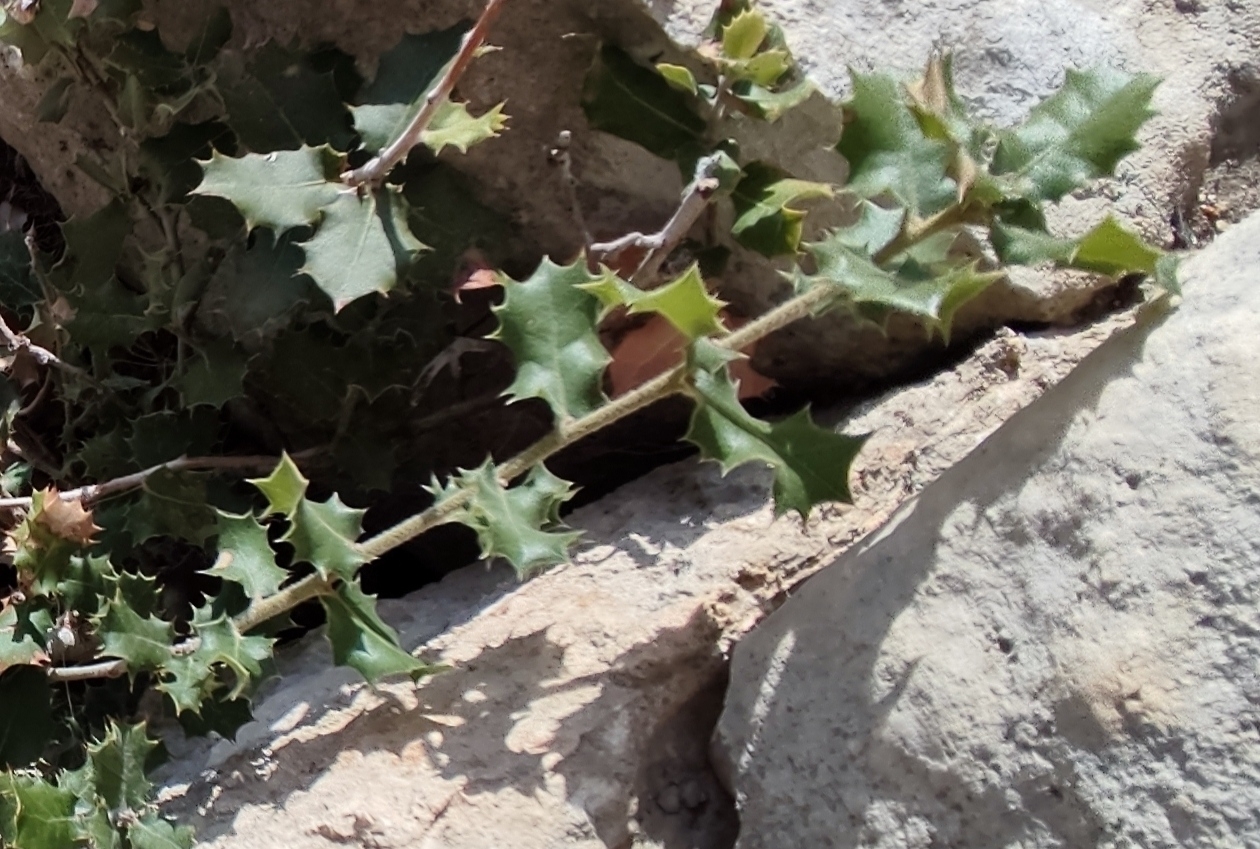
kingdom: Plantae
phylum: Tracheophyta
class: Magnoliopsida
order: Fagales
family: Fagaceae
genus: Quercus
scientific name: Quercus coccifera
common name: Kermes oak
